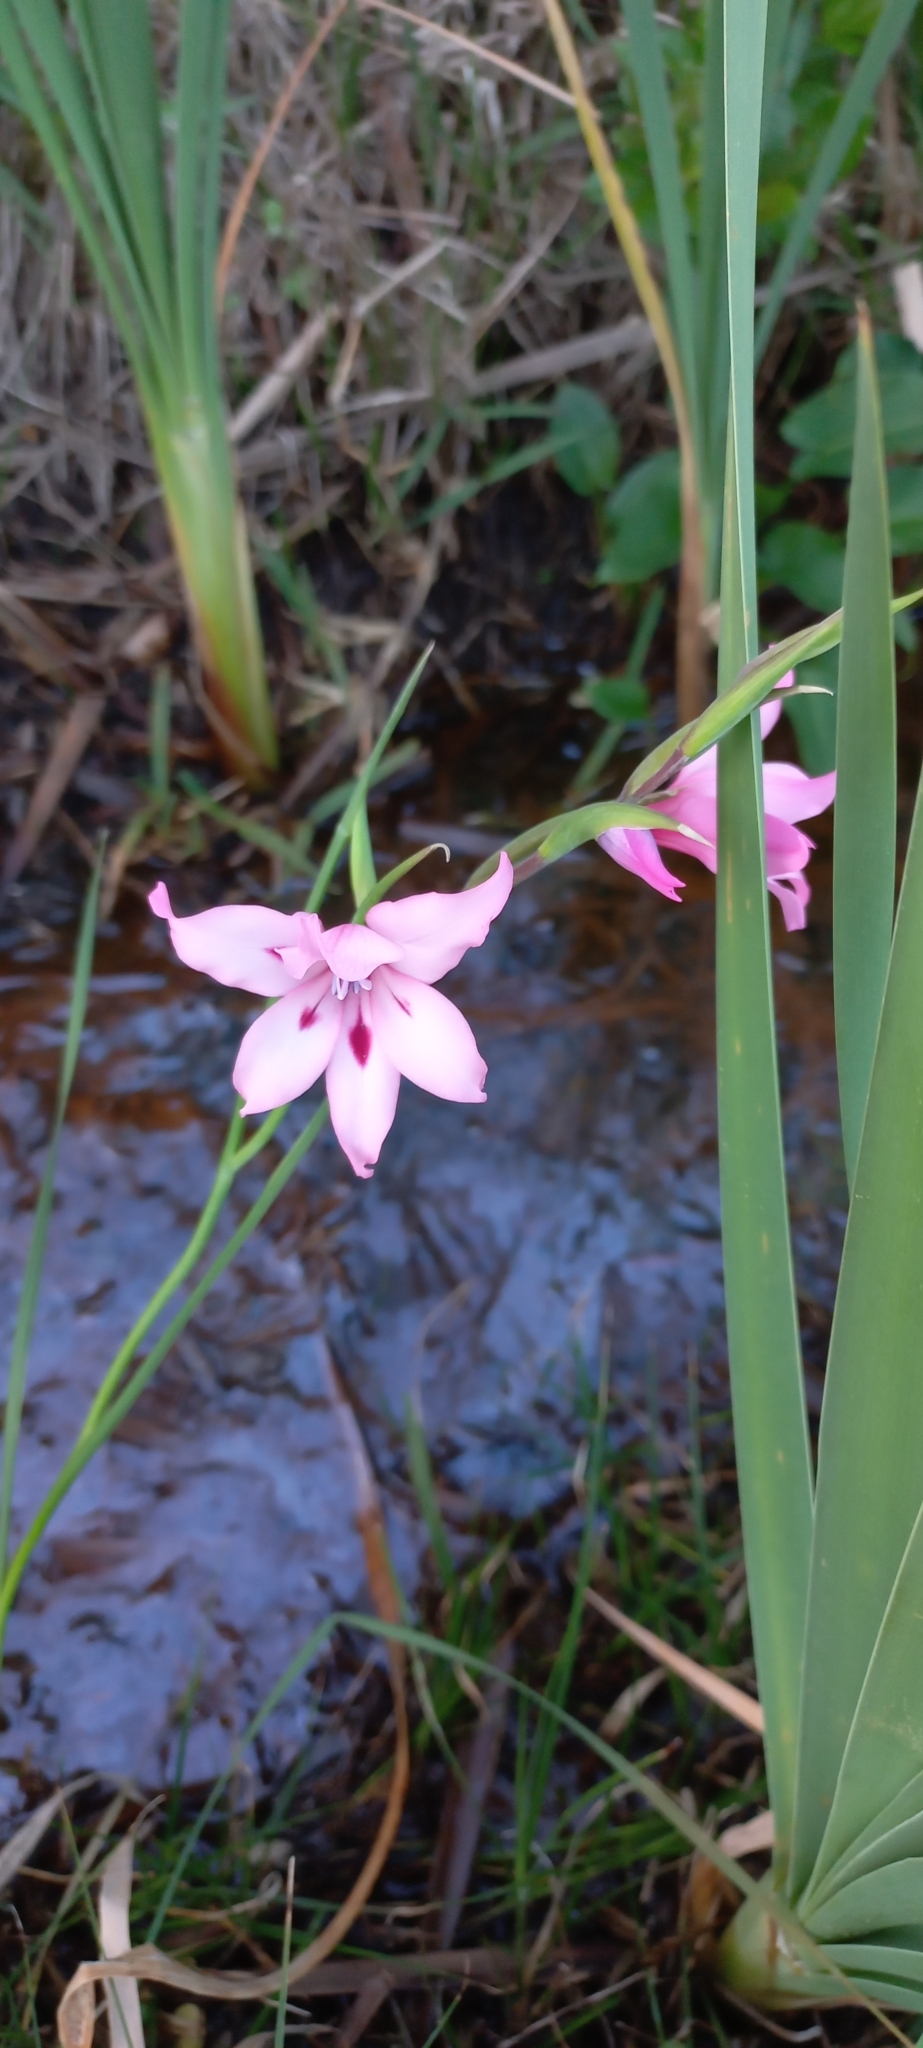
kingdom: Plantae
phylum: Tracheophyta
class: Liliopsida
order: Asparagales
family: Iridaceae
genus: Gladiolus
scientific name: Gladiolus carneus
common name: Painted-lady
